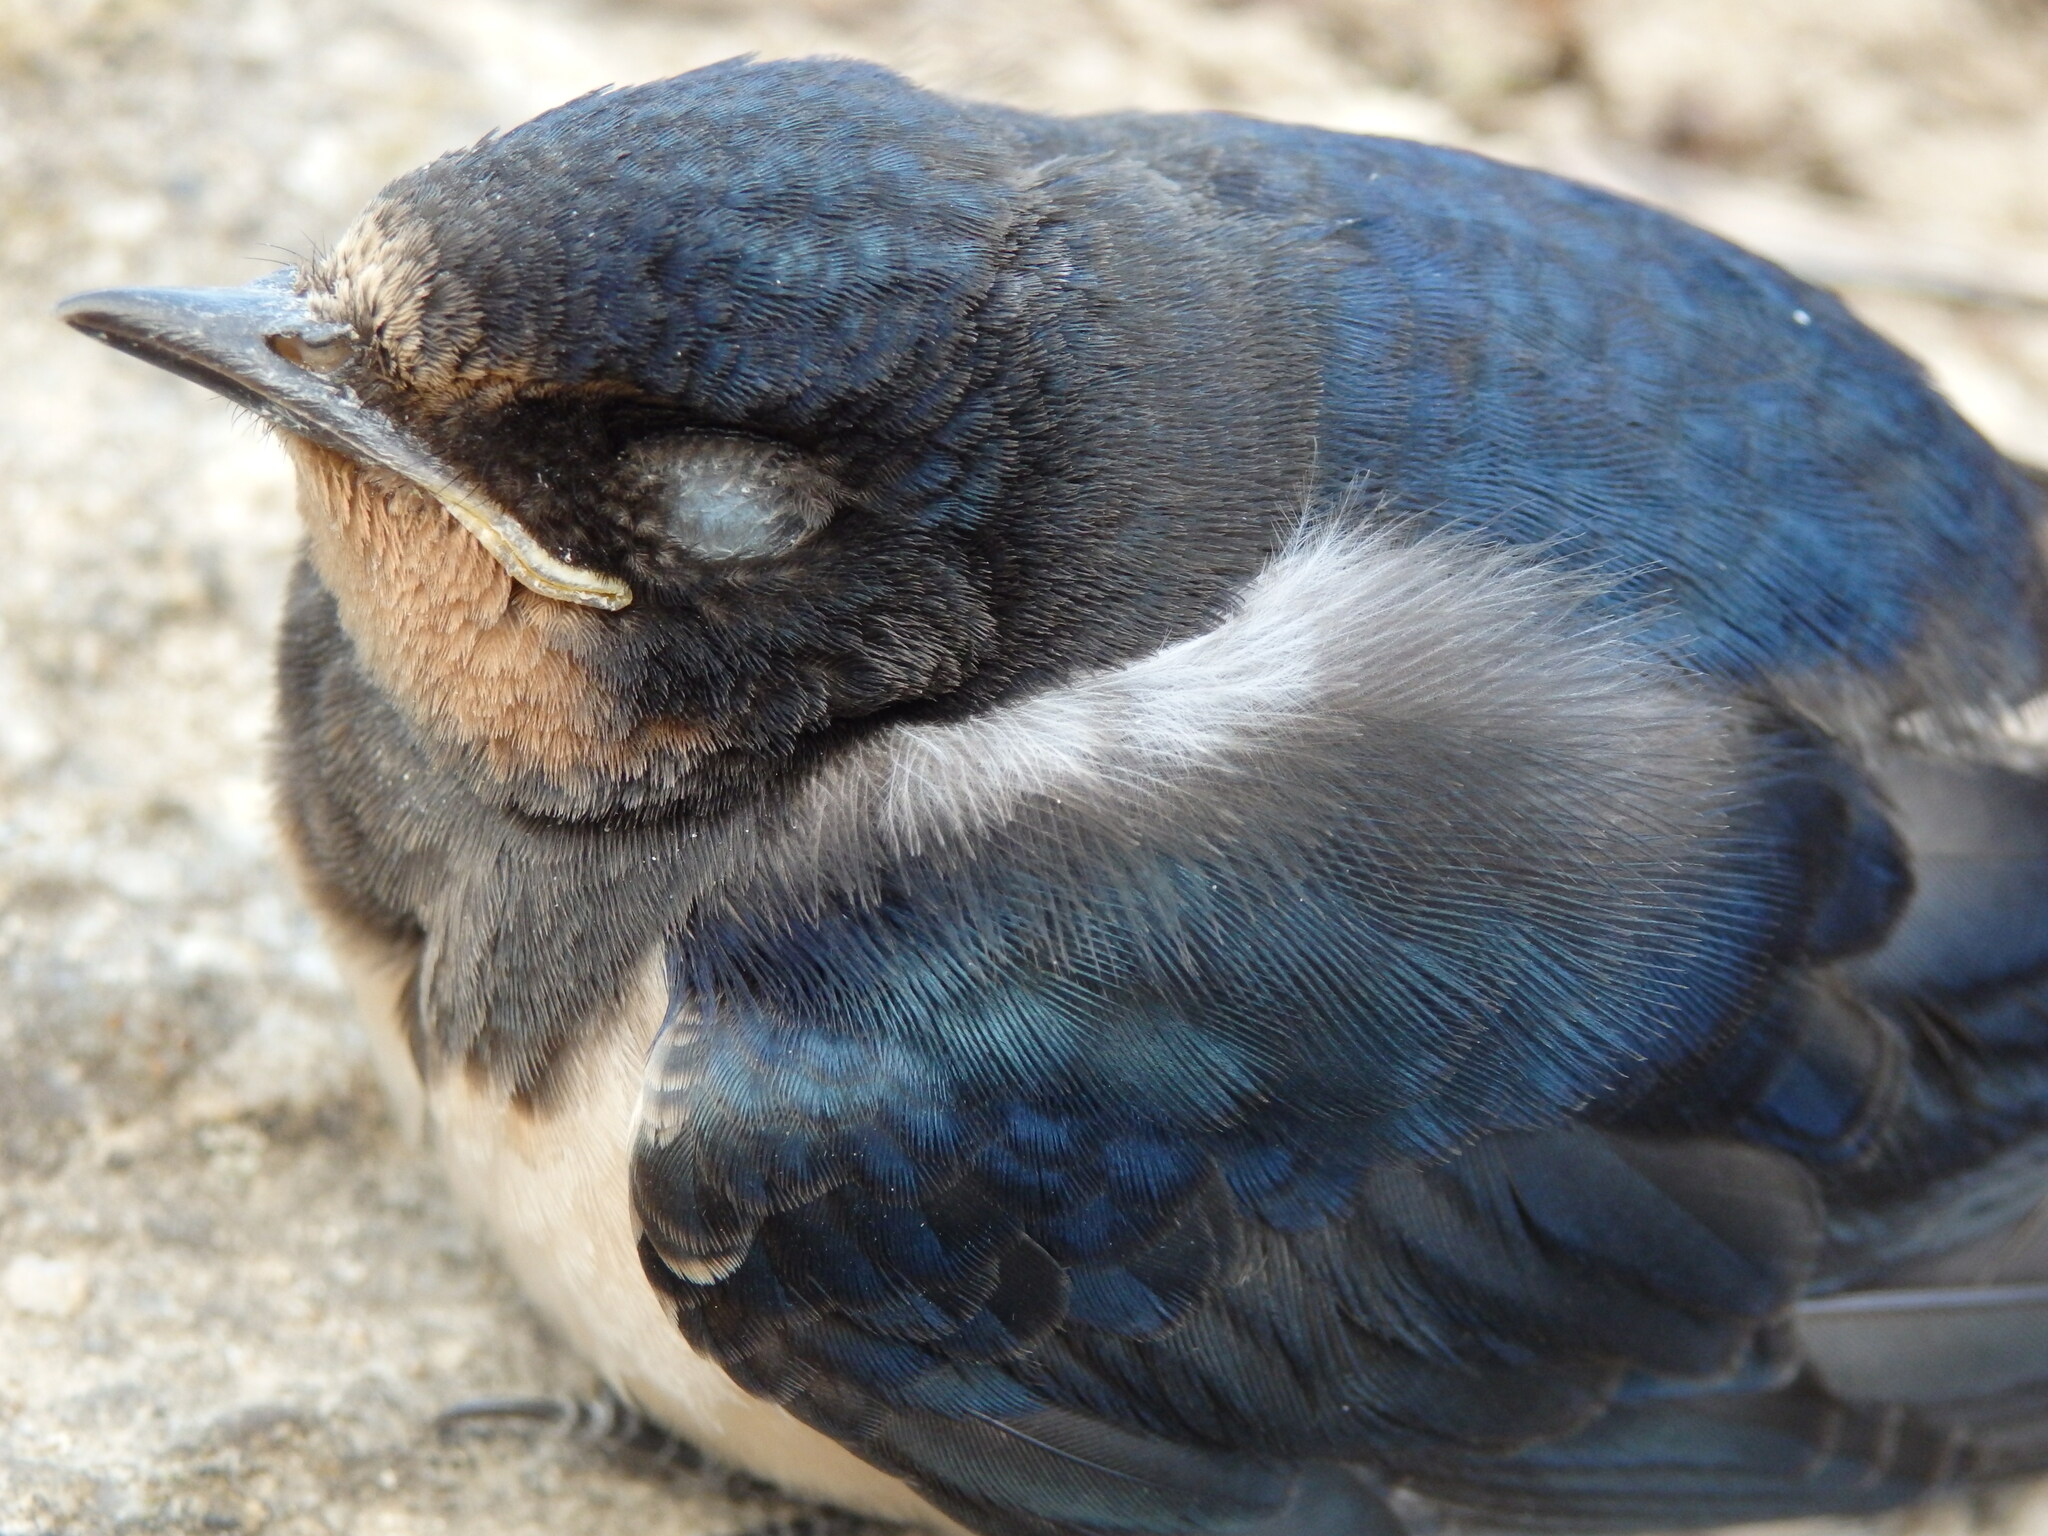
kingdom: Animalia
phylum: Chordata
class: Aves
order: Passeriformes
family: Hirundinidae
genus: Hirundo
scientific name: Hirundo rustica
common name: Barn swallow
